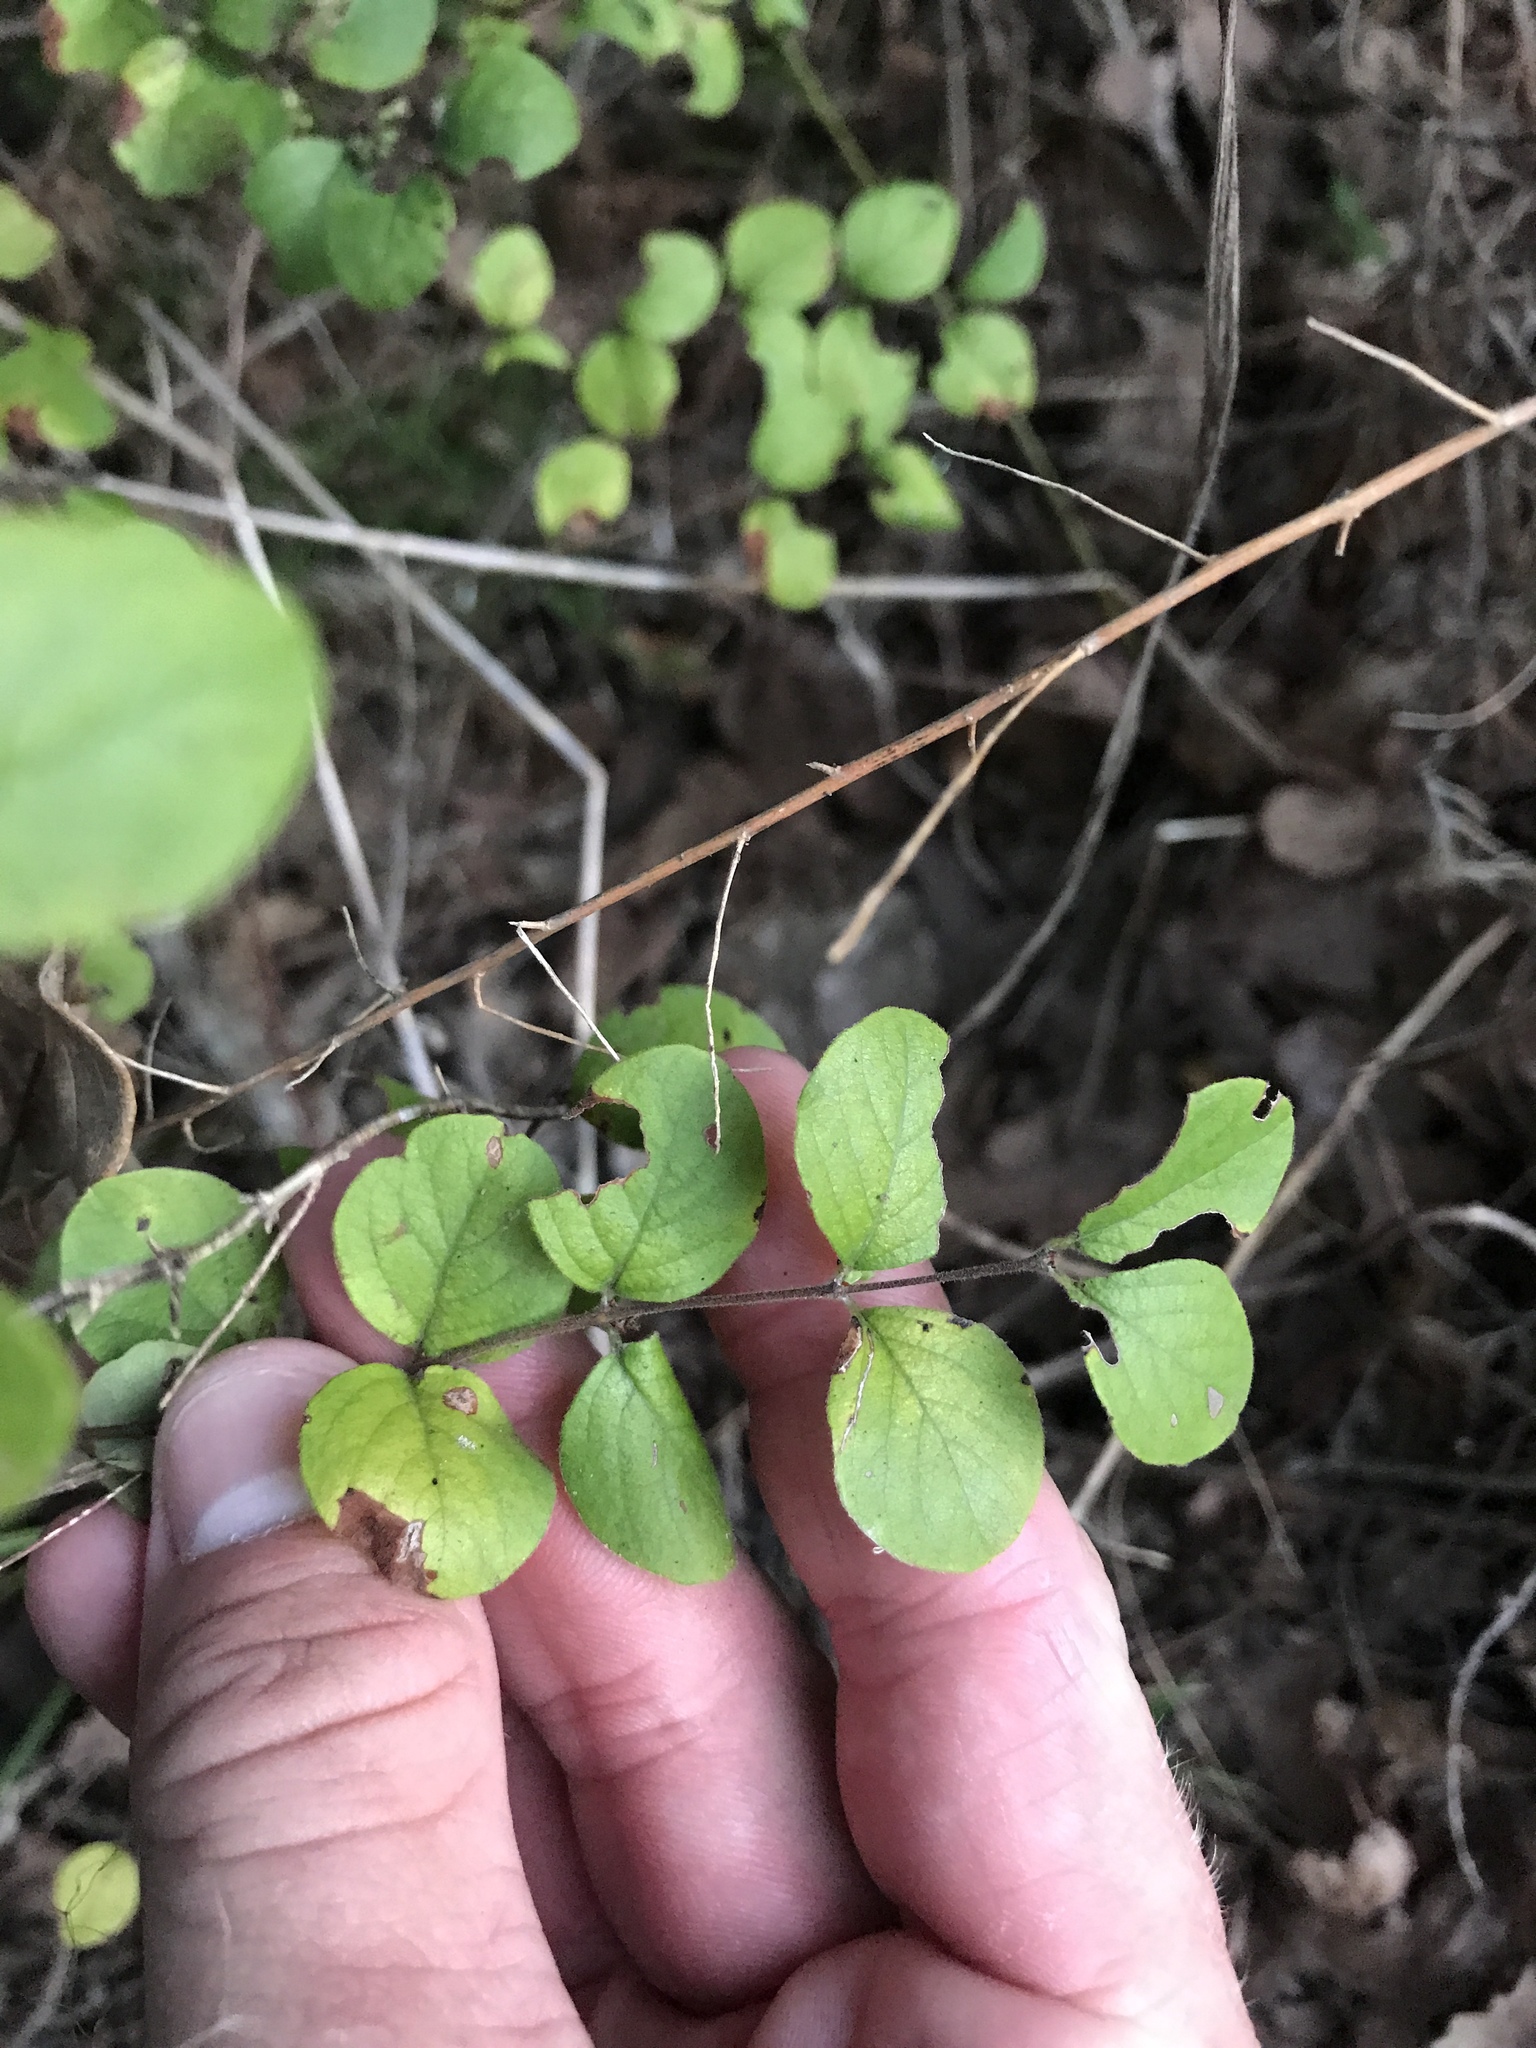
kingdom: Plantae
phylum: Tracheophyta
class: Magnoliopsida
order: Dipsacales
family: Caprifoliaceae
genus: Symphoricarpos
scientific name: Symphoricarpos orbiculatus
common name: Coralberry
